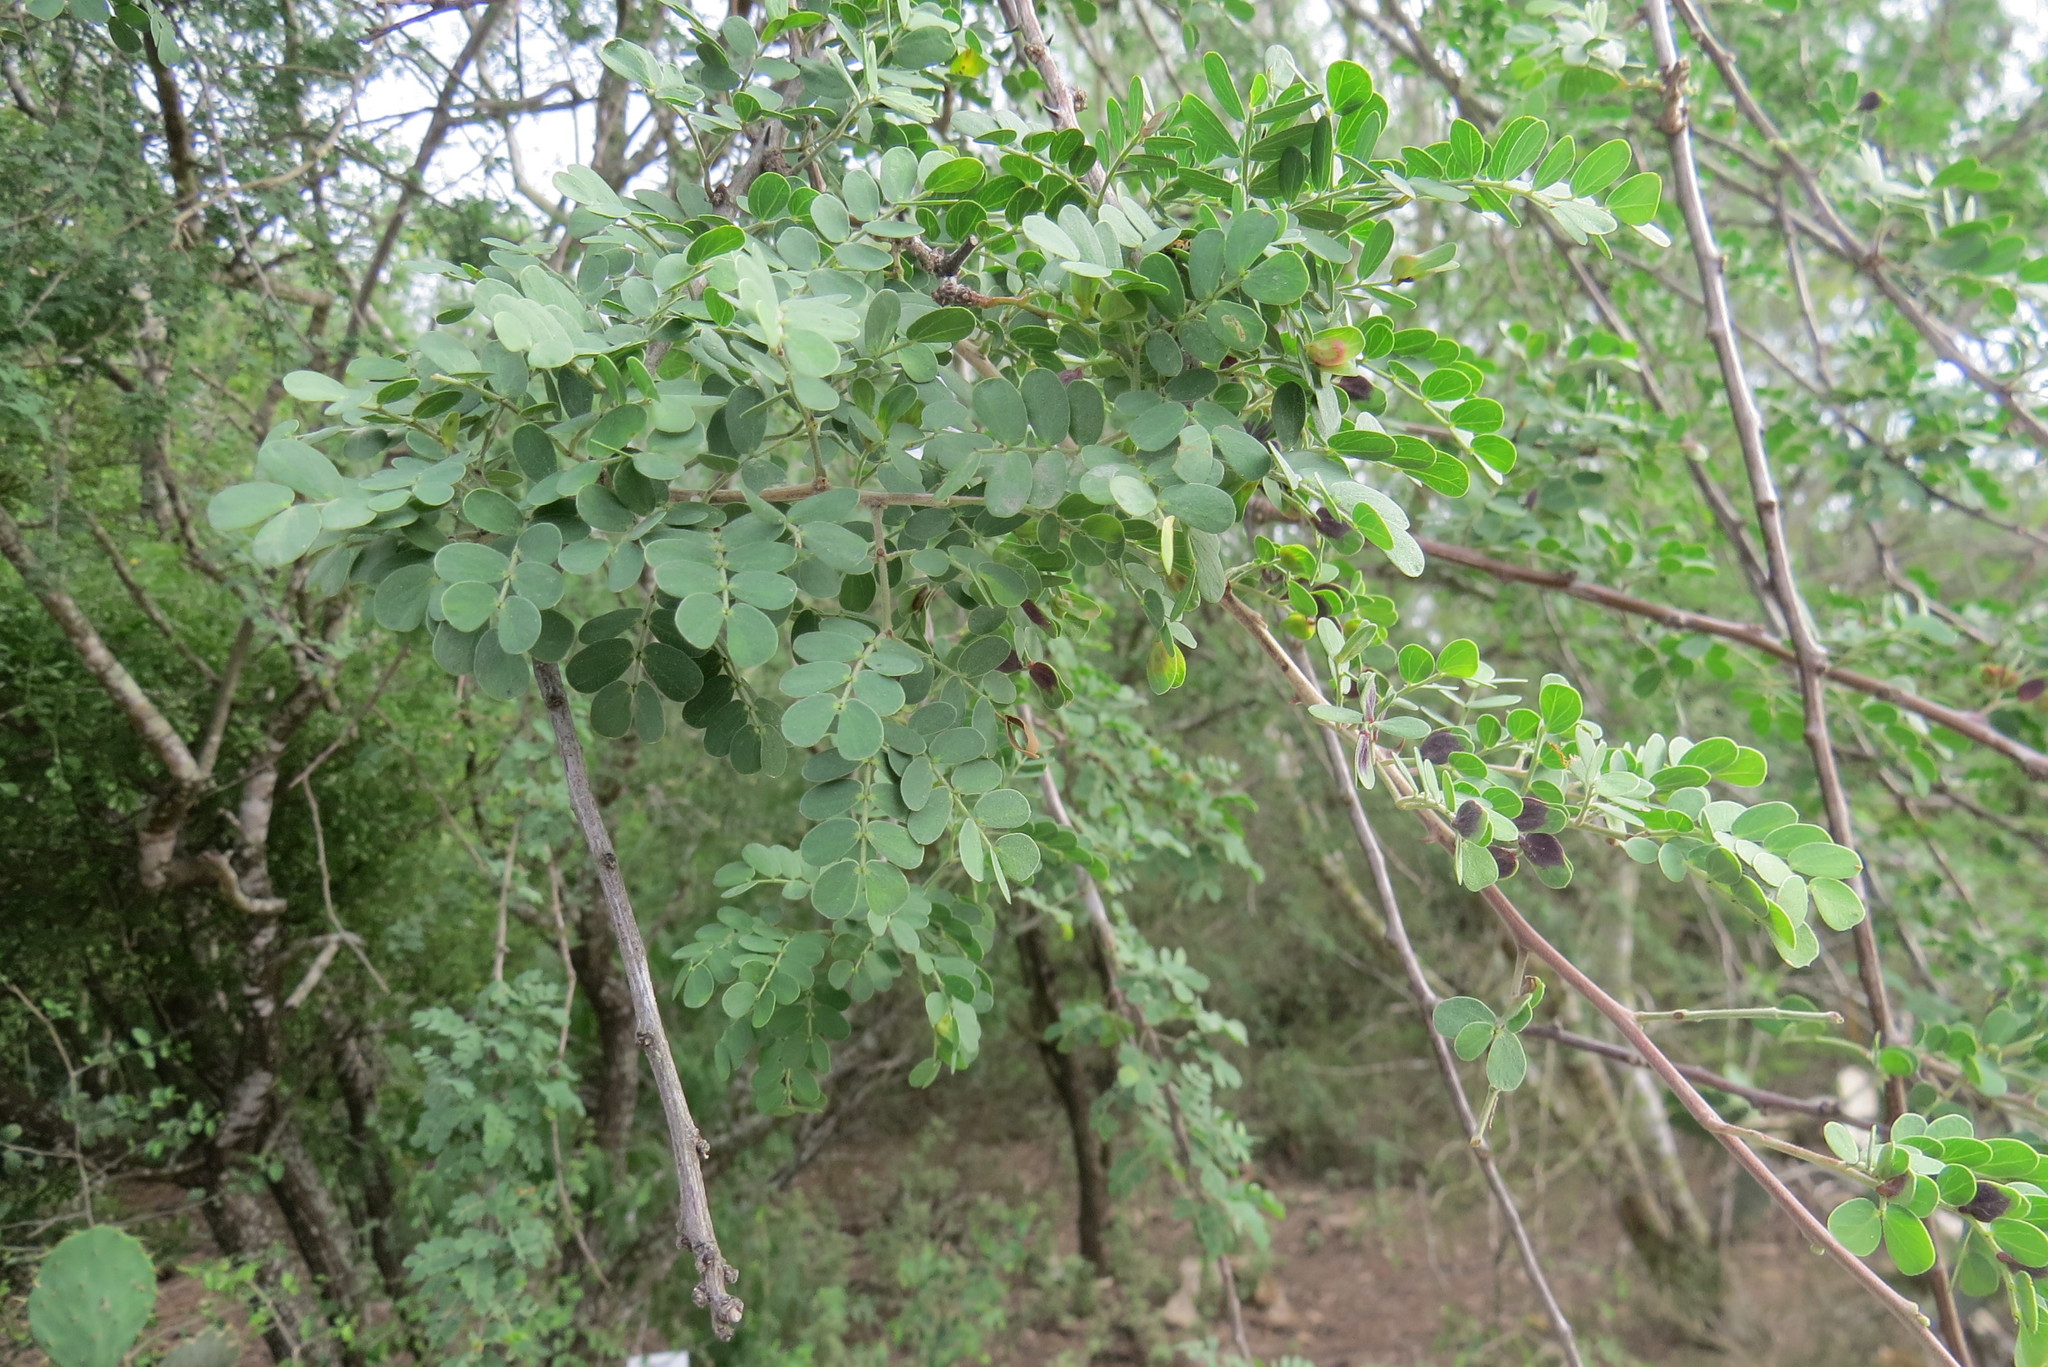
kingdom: Plantae
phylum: Tracheophyta
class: Magnoliopsida
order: Fabales
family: Fabaceae
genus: Senegalia
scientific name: Senegalia wrightii
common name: Texas cat's-claw
